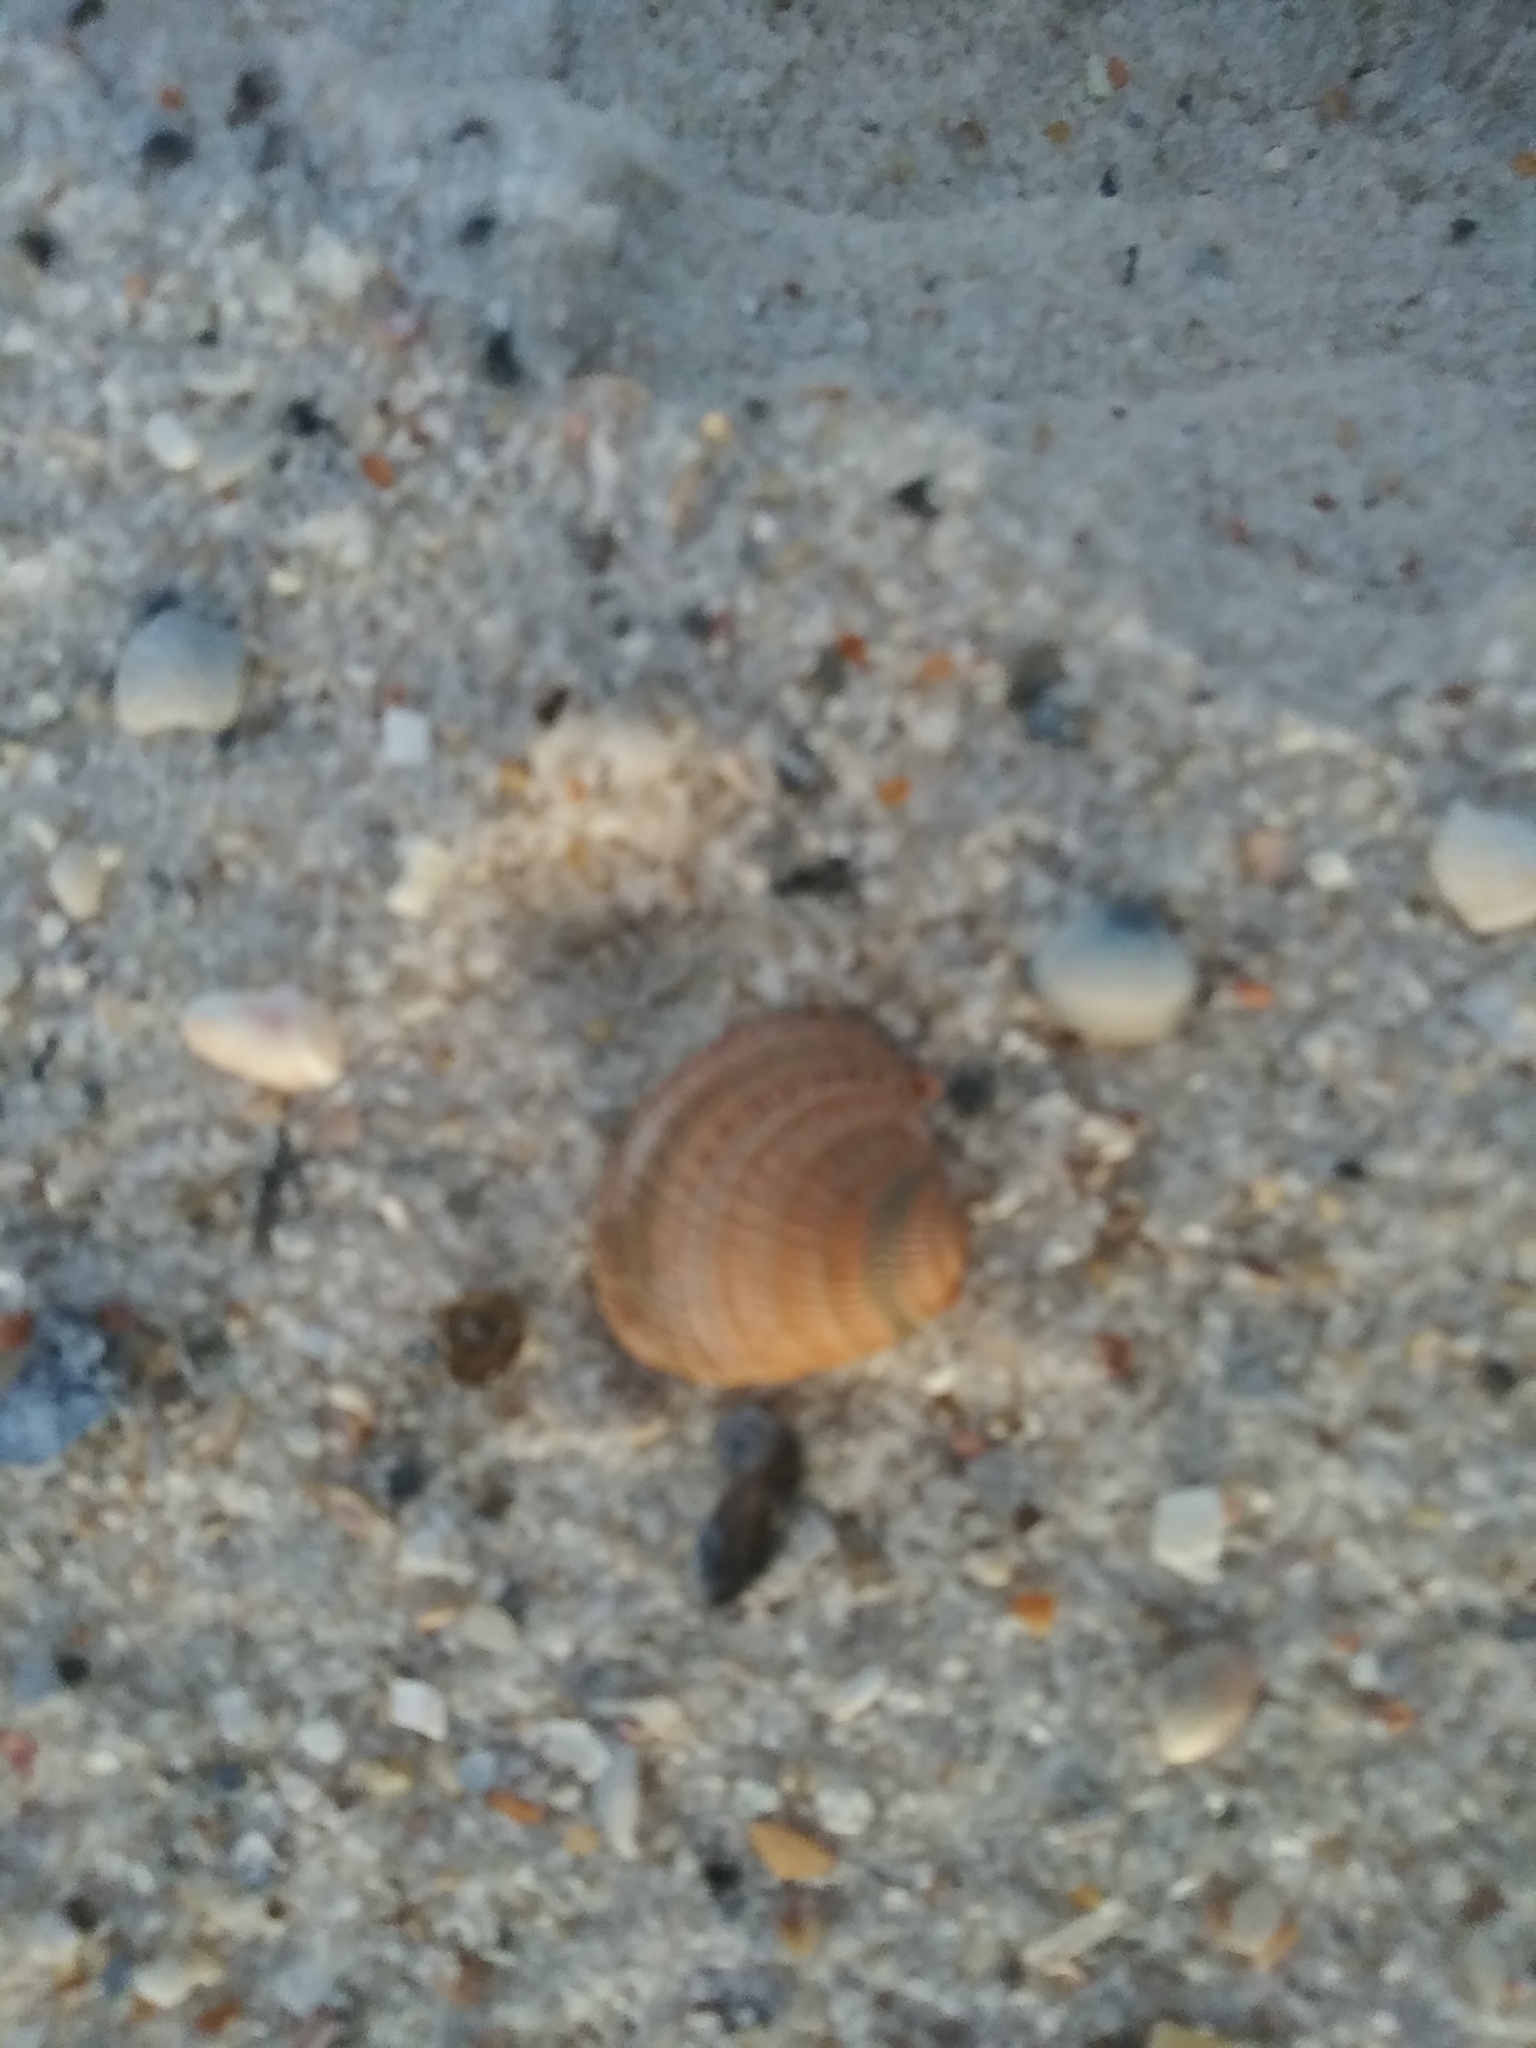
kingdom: Animalia
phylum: Mollusca
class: Bivalvia
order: Venerida
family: Veneridae
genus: Chione
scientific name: Chione elevata
